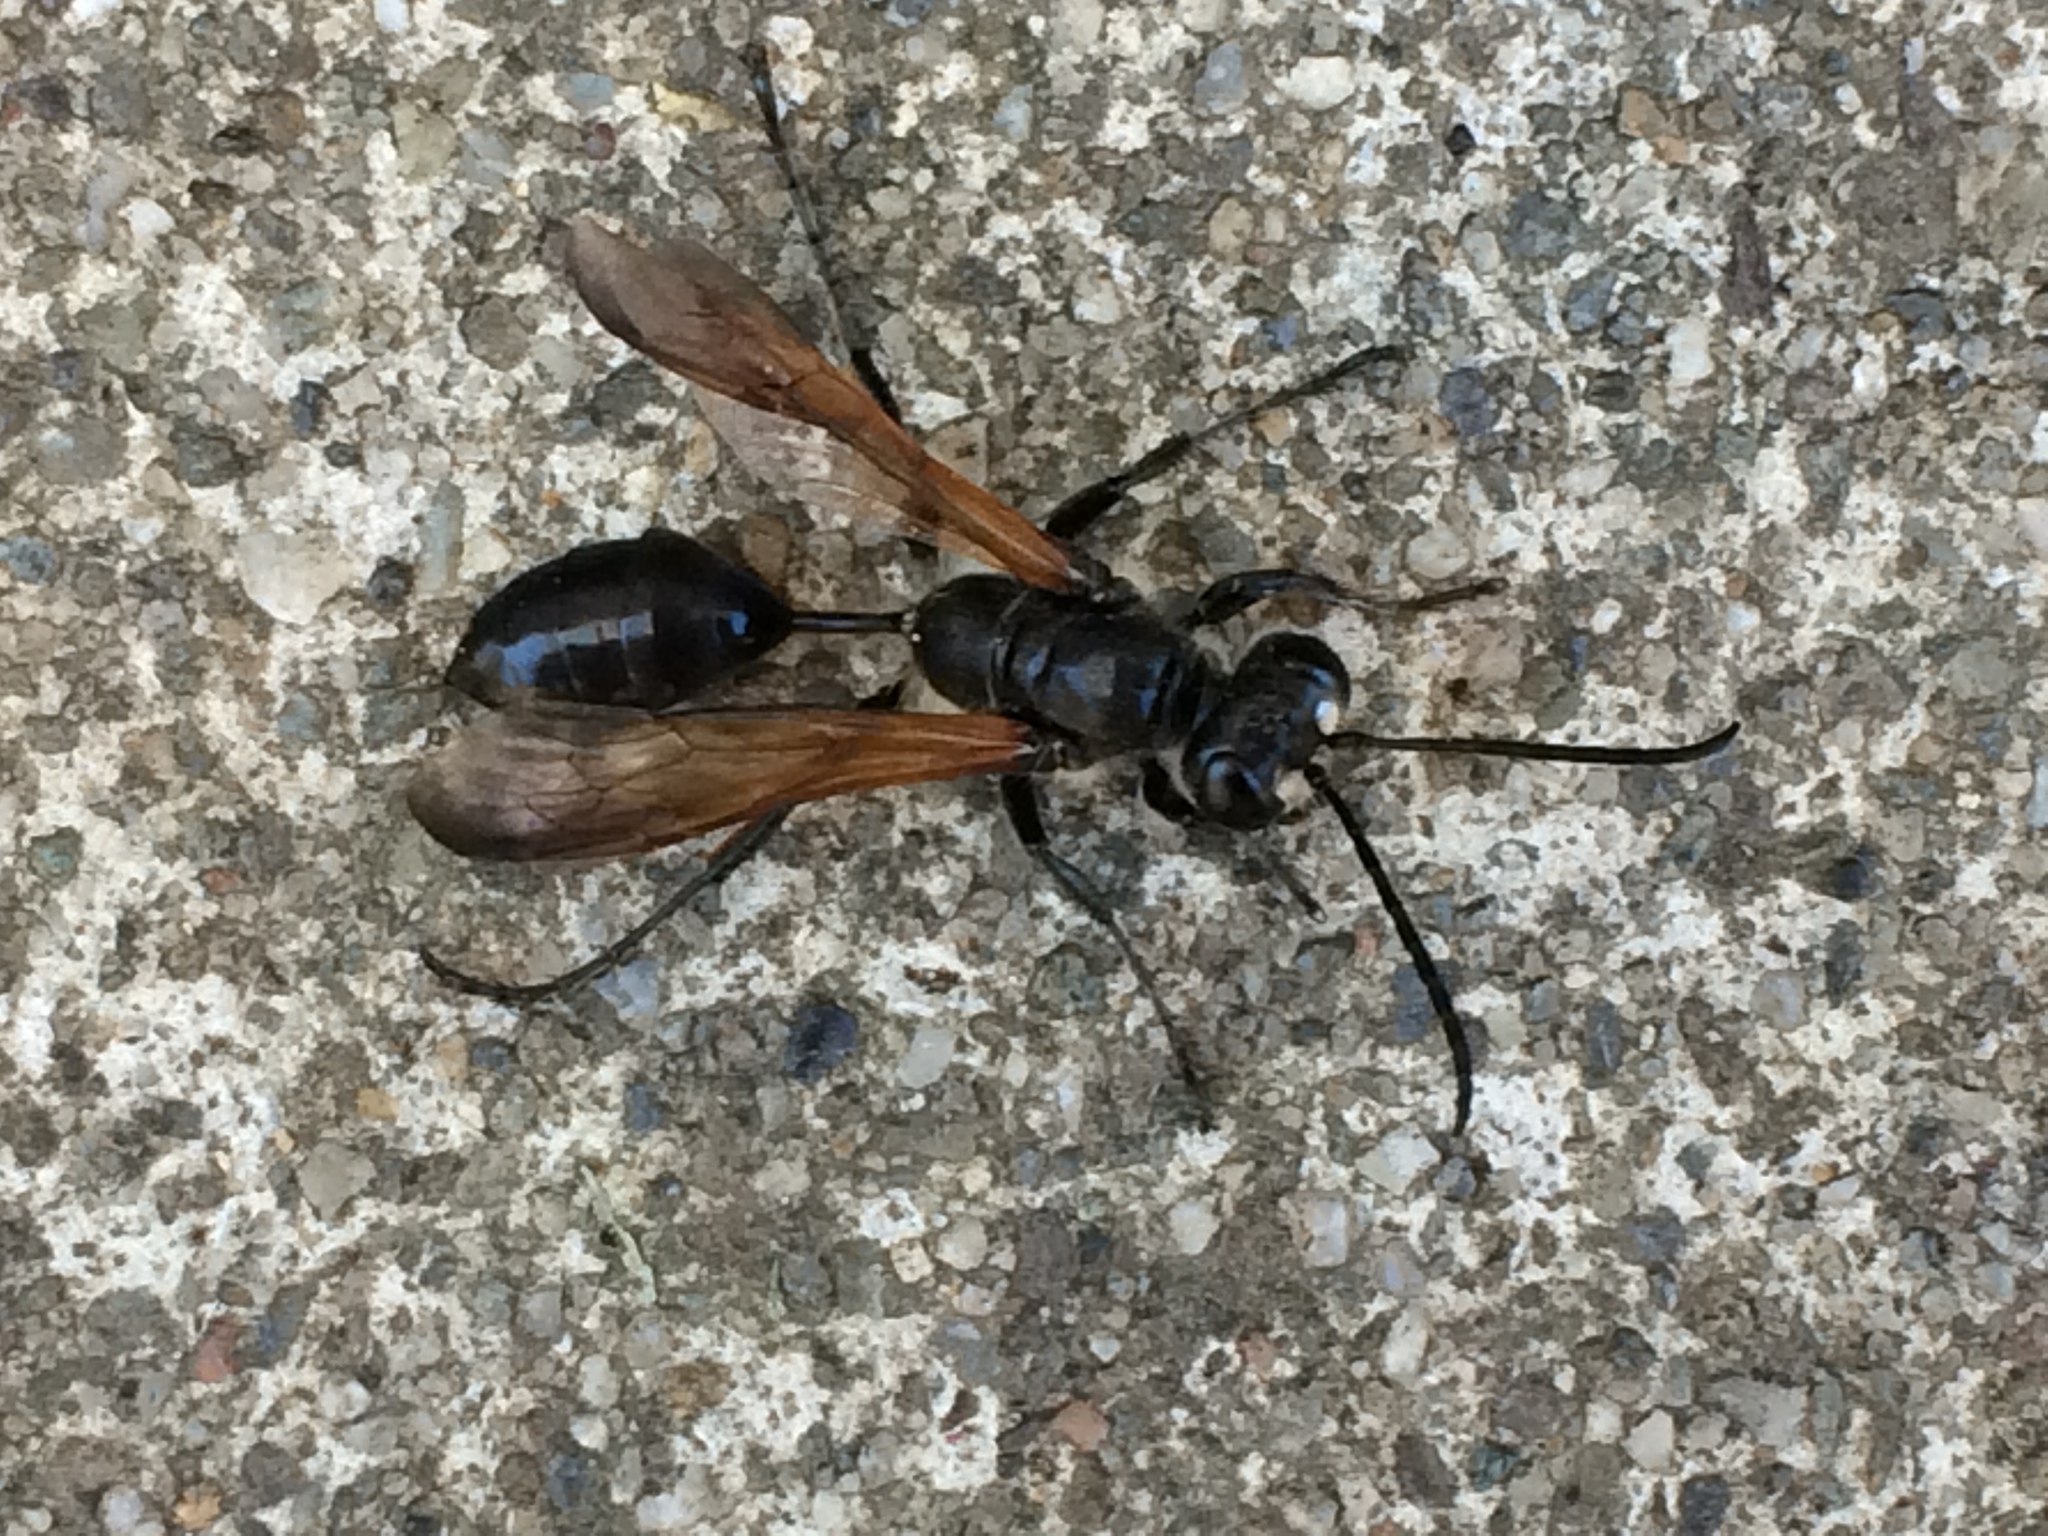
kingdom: Animalia
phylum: Arthropoda
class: Insecta
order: Hymenoptera
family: Sphecidae
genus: Isodontia
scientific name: Isodontia mexicana
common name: Mud dauber
